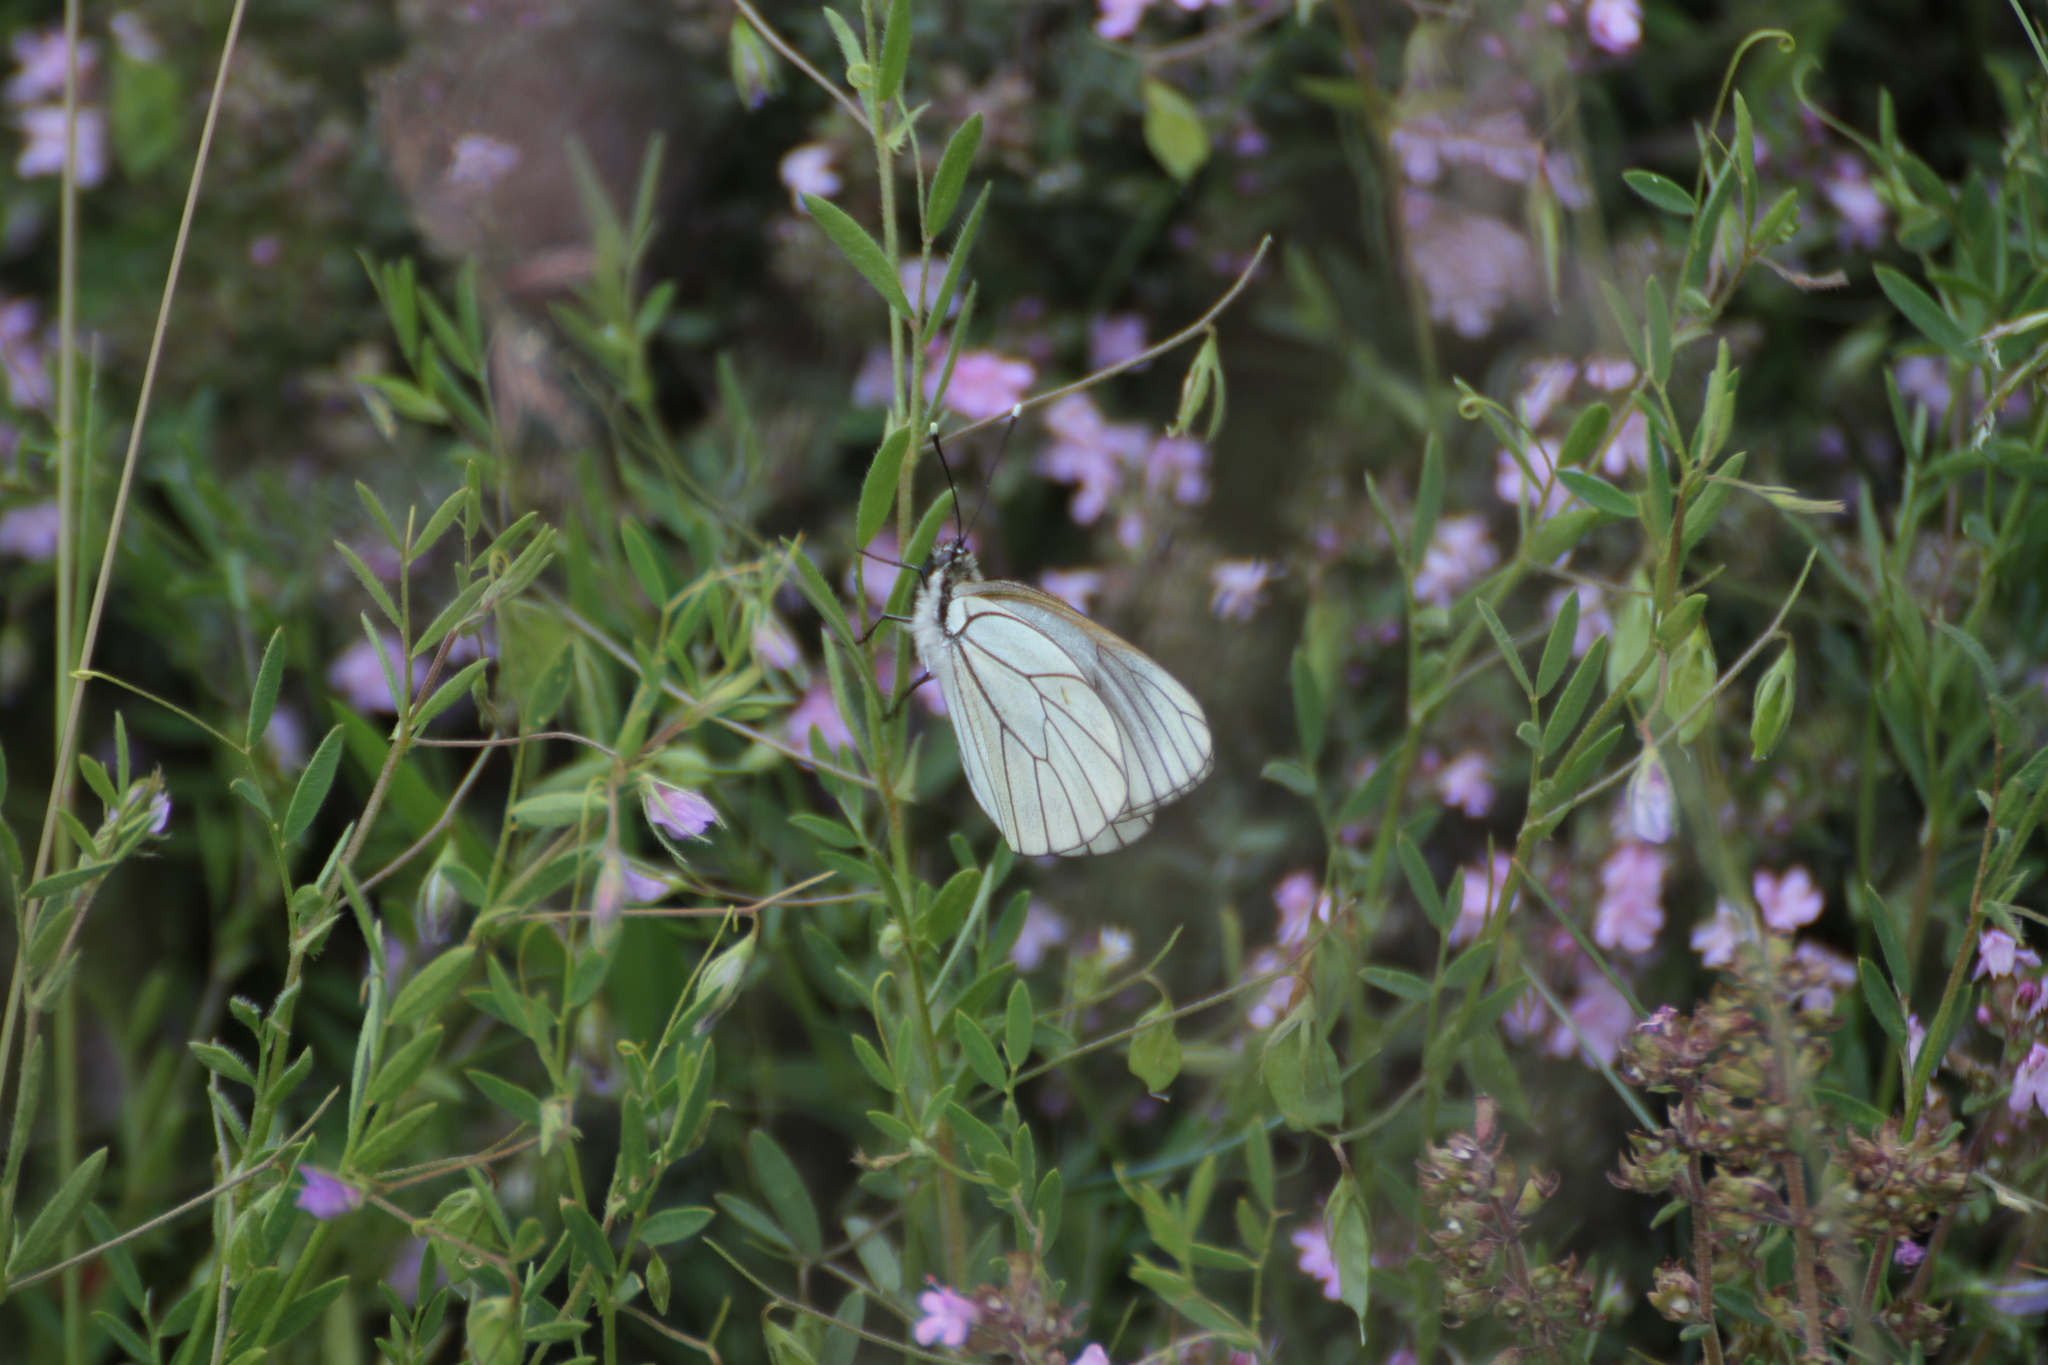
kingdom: Animalia
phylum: Arthropoda
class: Insecta
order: Lepidoptera
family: Pieridae
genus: Aporia
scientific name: Aporia crataegi
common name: Black-veined white
